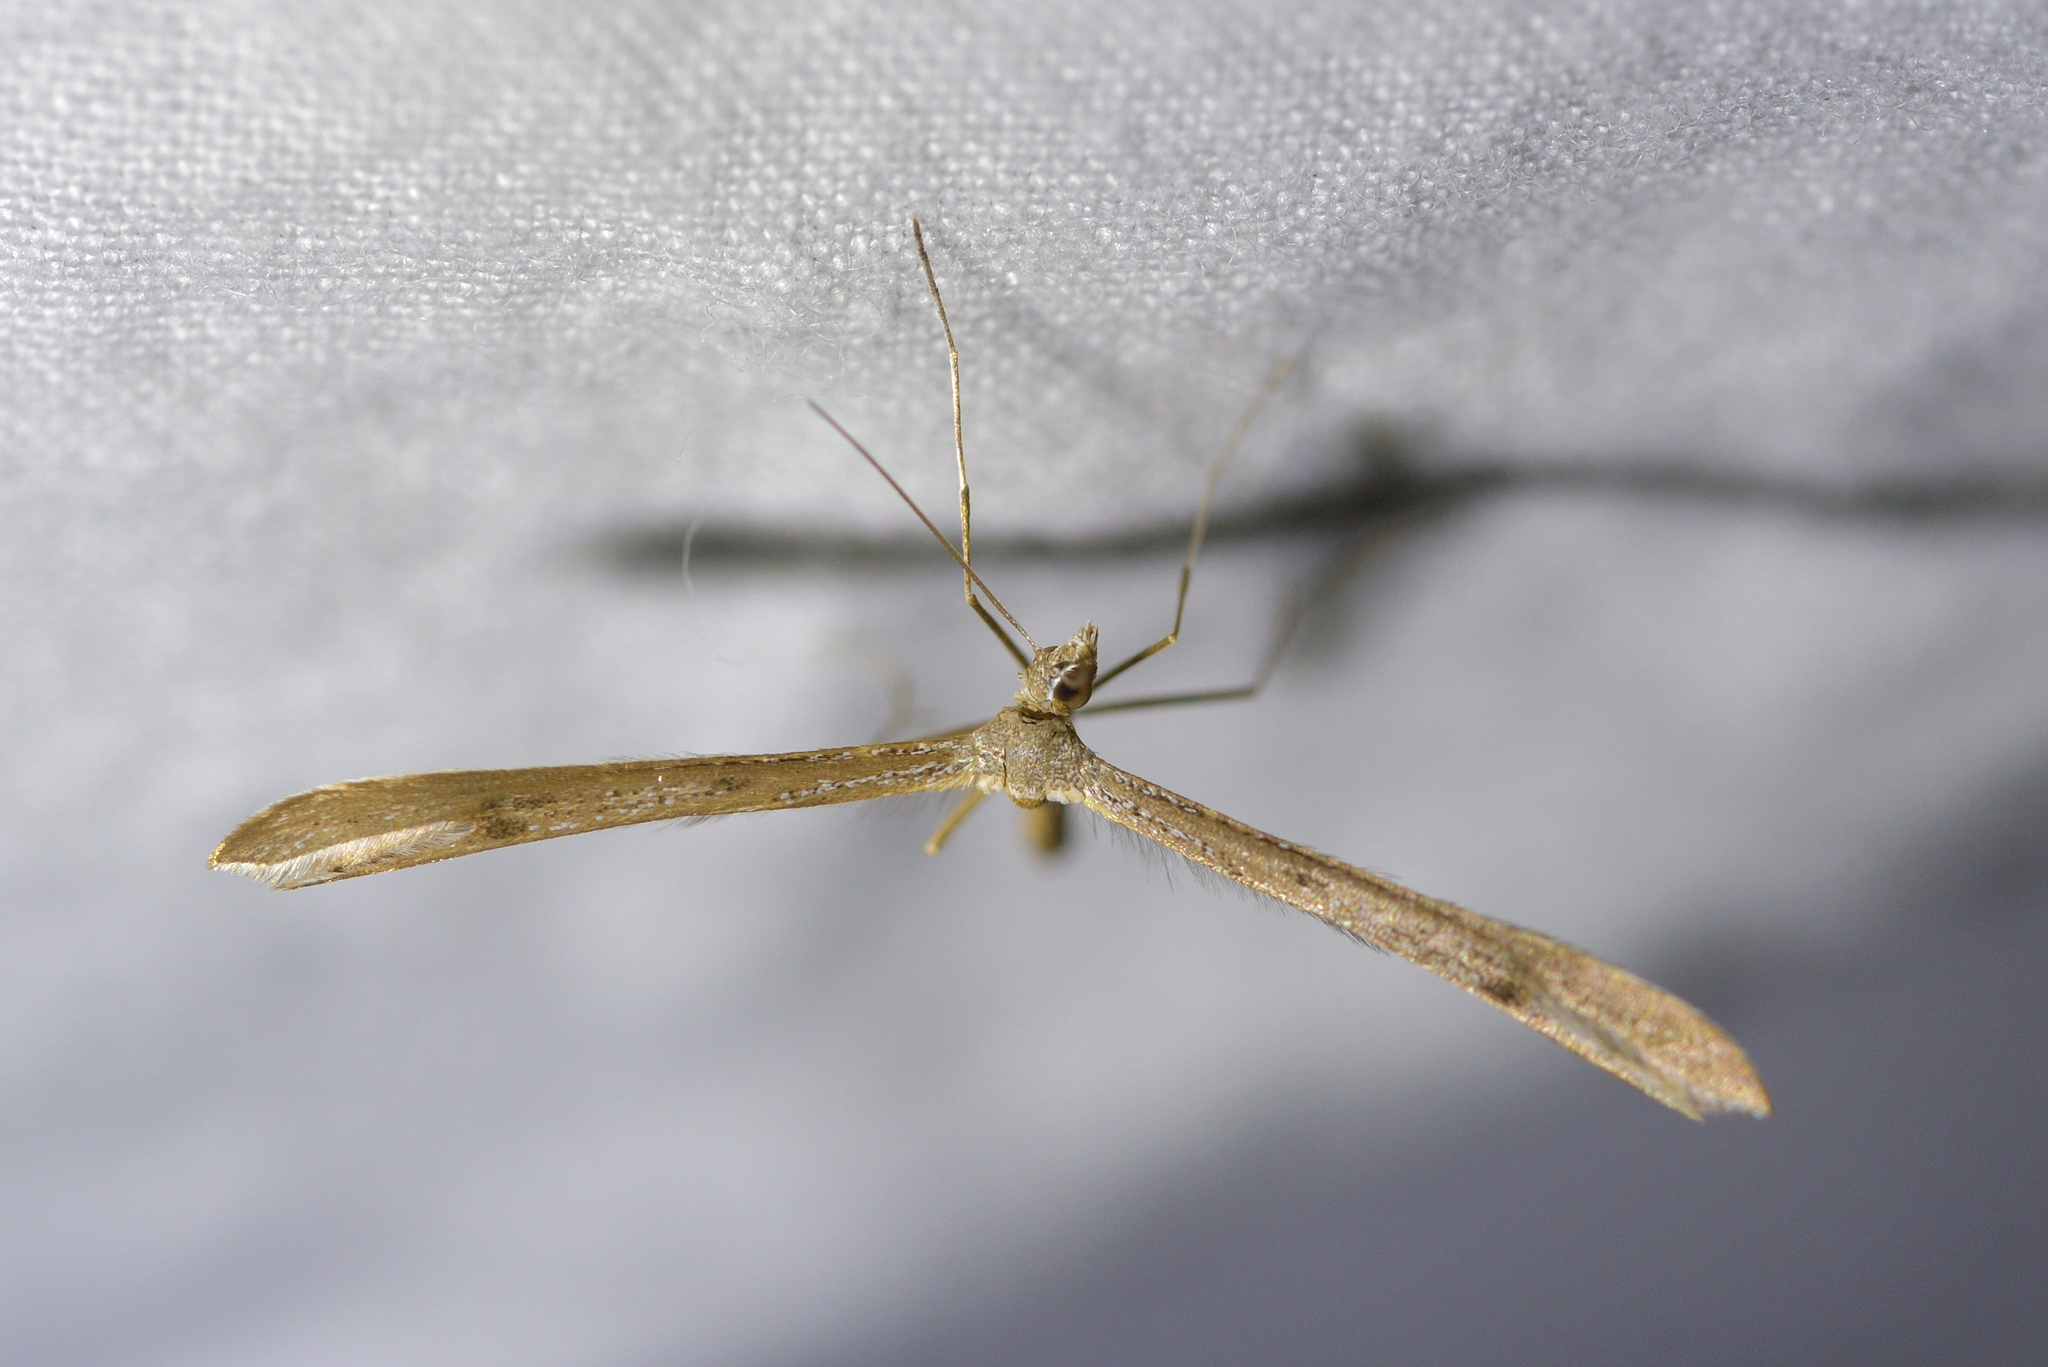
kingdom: Animalia
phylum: Arthropoda
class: Insecta
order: Lepidoptera
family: Pterophoridae
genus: Stenoptilia
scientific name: Stenoptilia zophodactylus
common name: Dowdy plume
